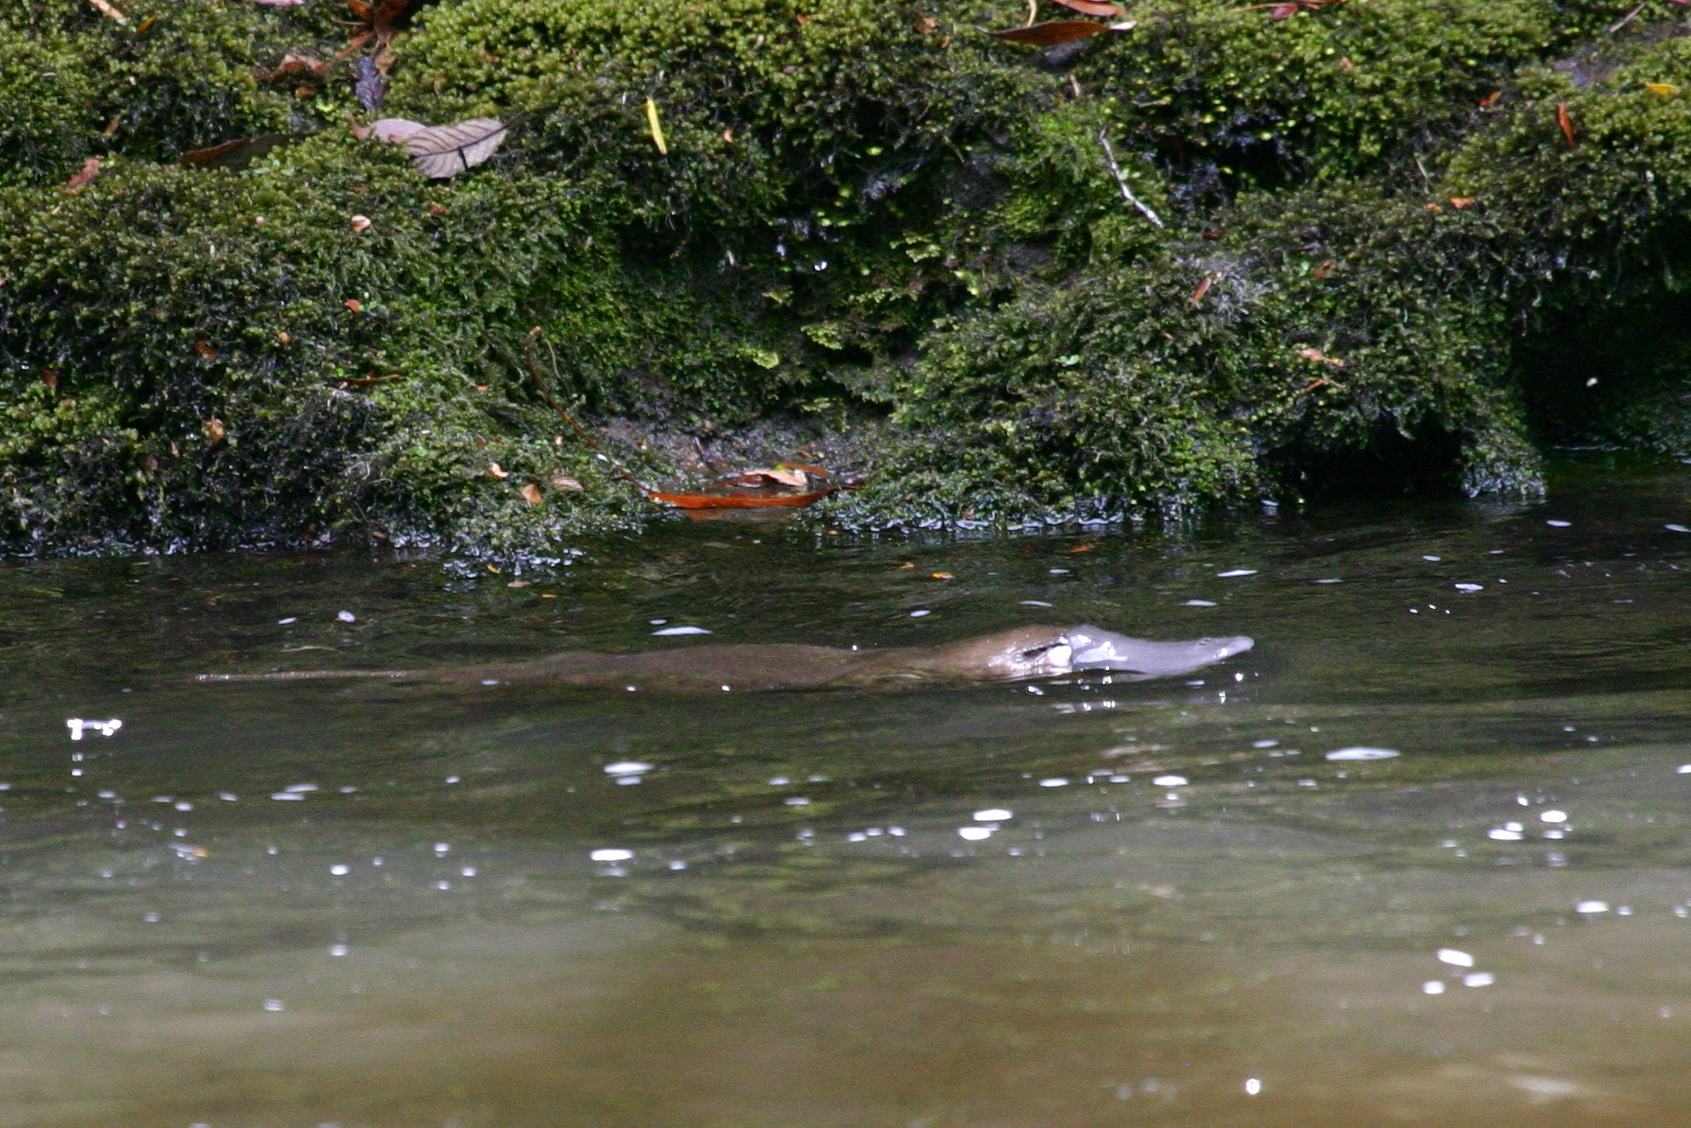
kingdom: Animalia
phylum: Chordata
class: Mammalia
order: Monotremata
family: Ornithorhynchidae
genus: Ornithorhynchus
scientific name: Ornithorhynchus anatinus
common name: Platypus
